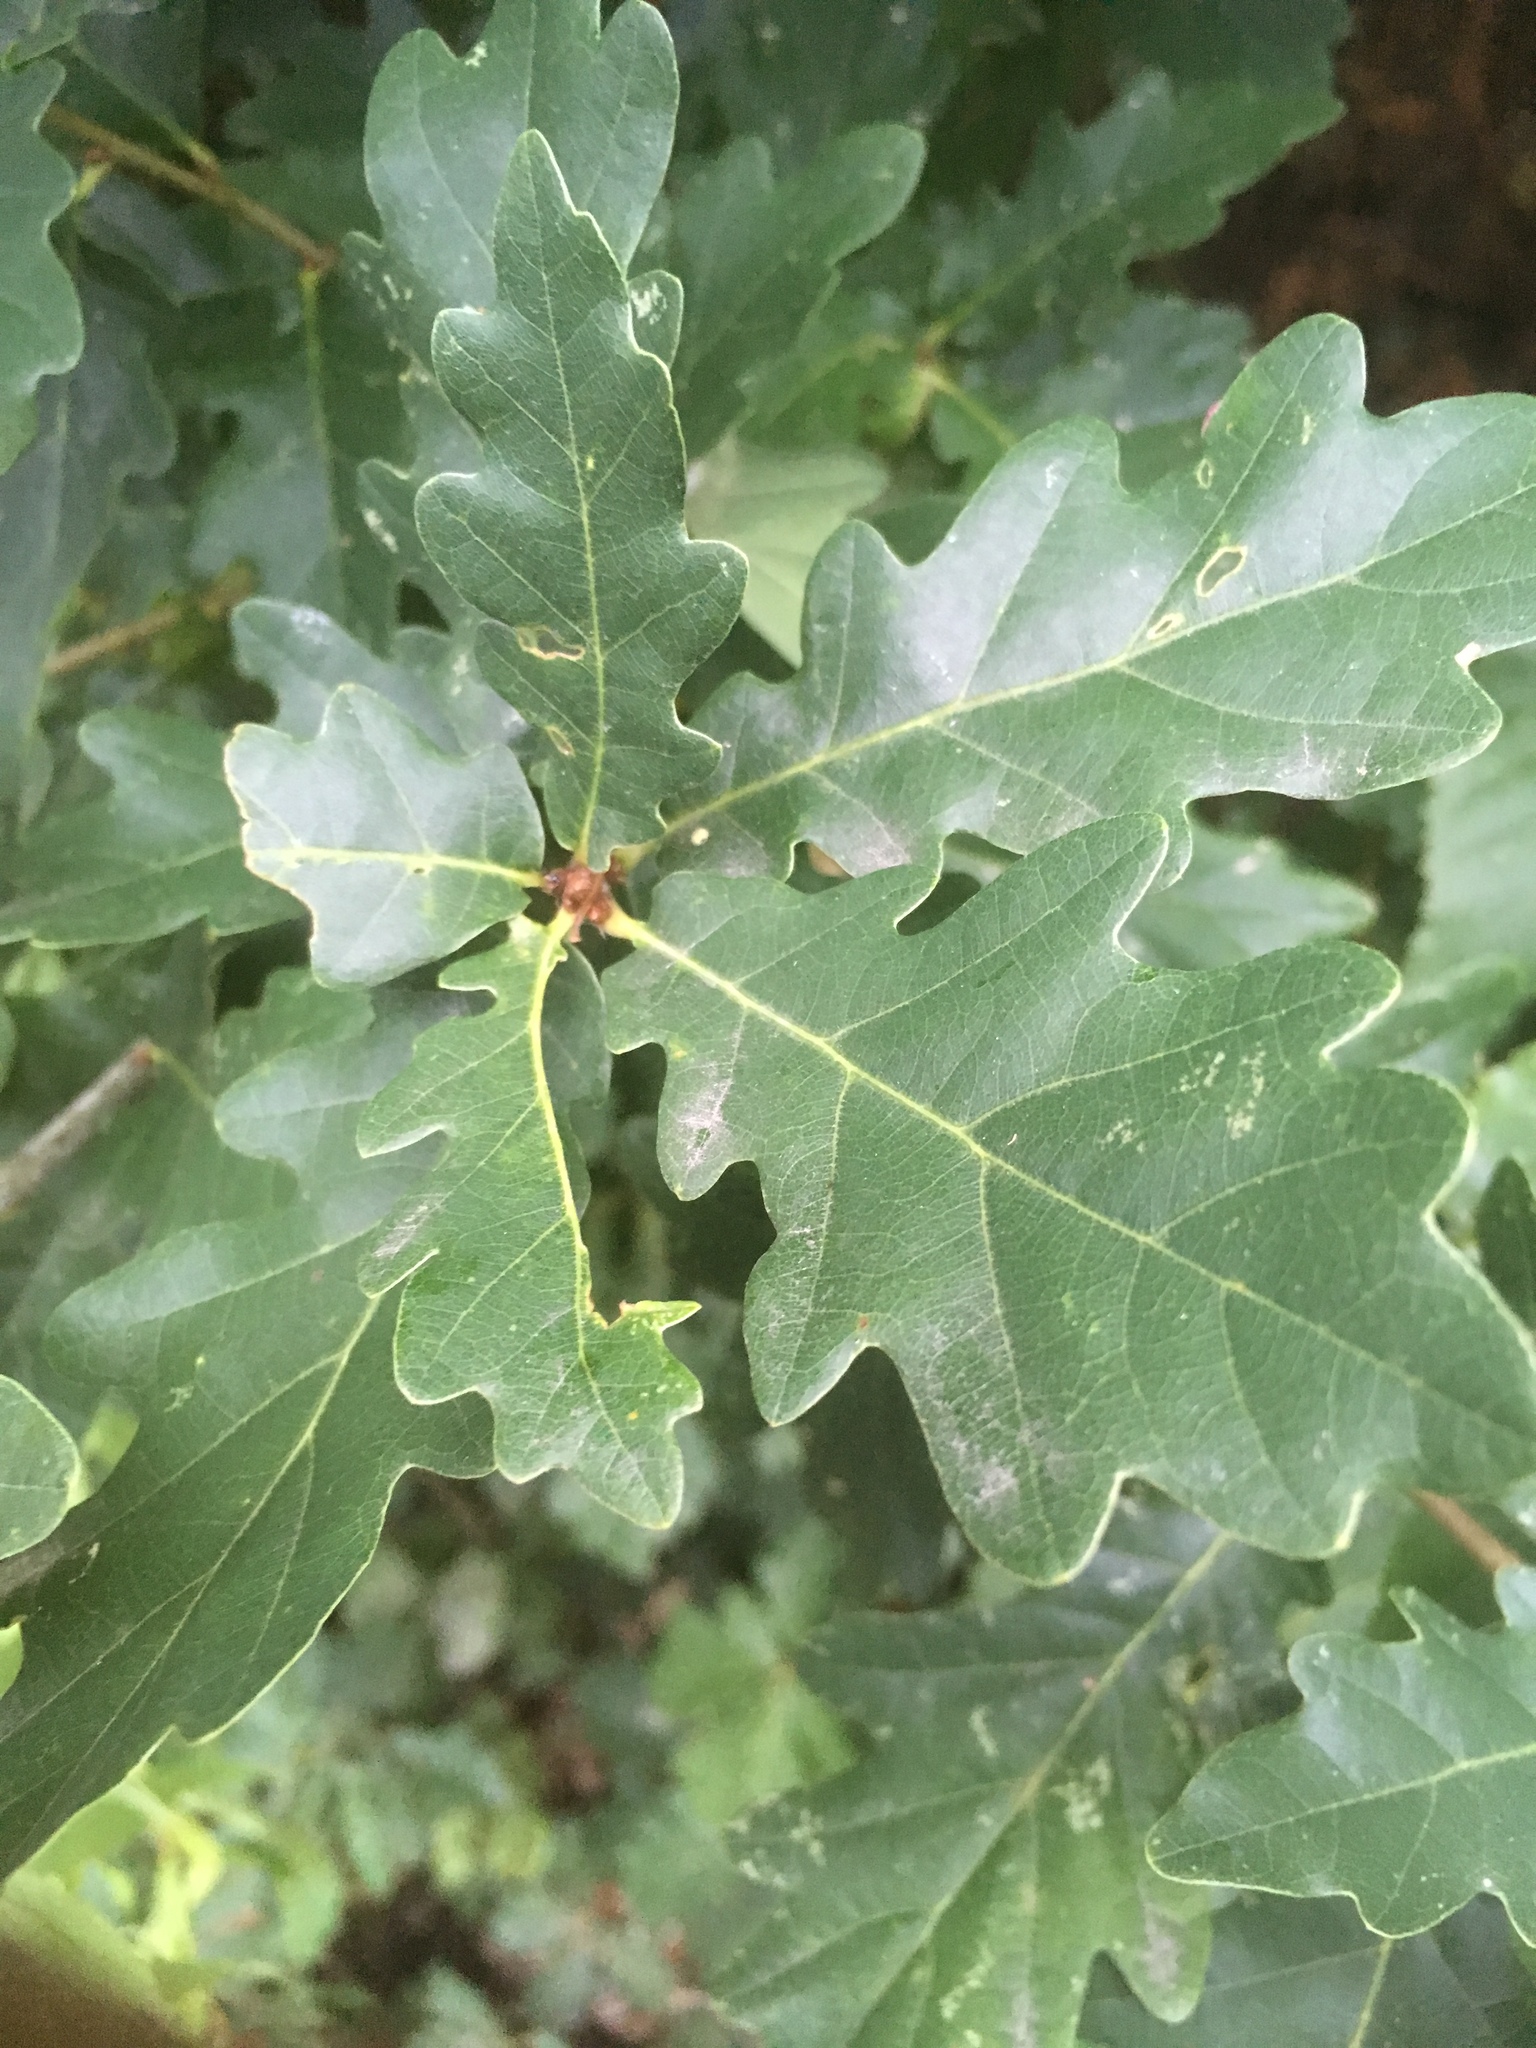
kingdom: Plantae
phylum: Tracheophyta
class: Magnoliopsida
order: Fagales
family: Fagaceae
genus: Quercus
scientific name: Quercus robur
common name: Pedunculate oak
